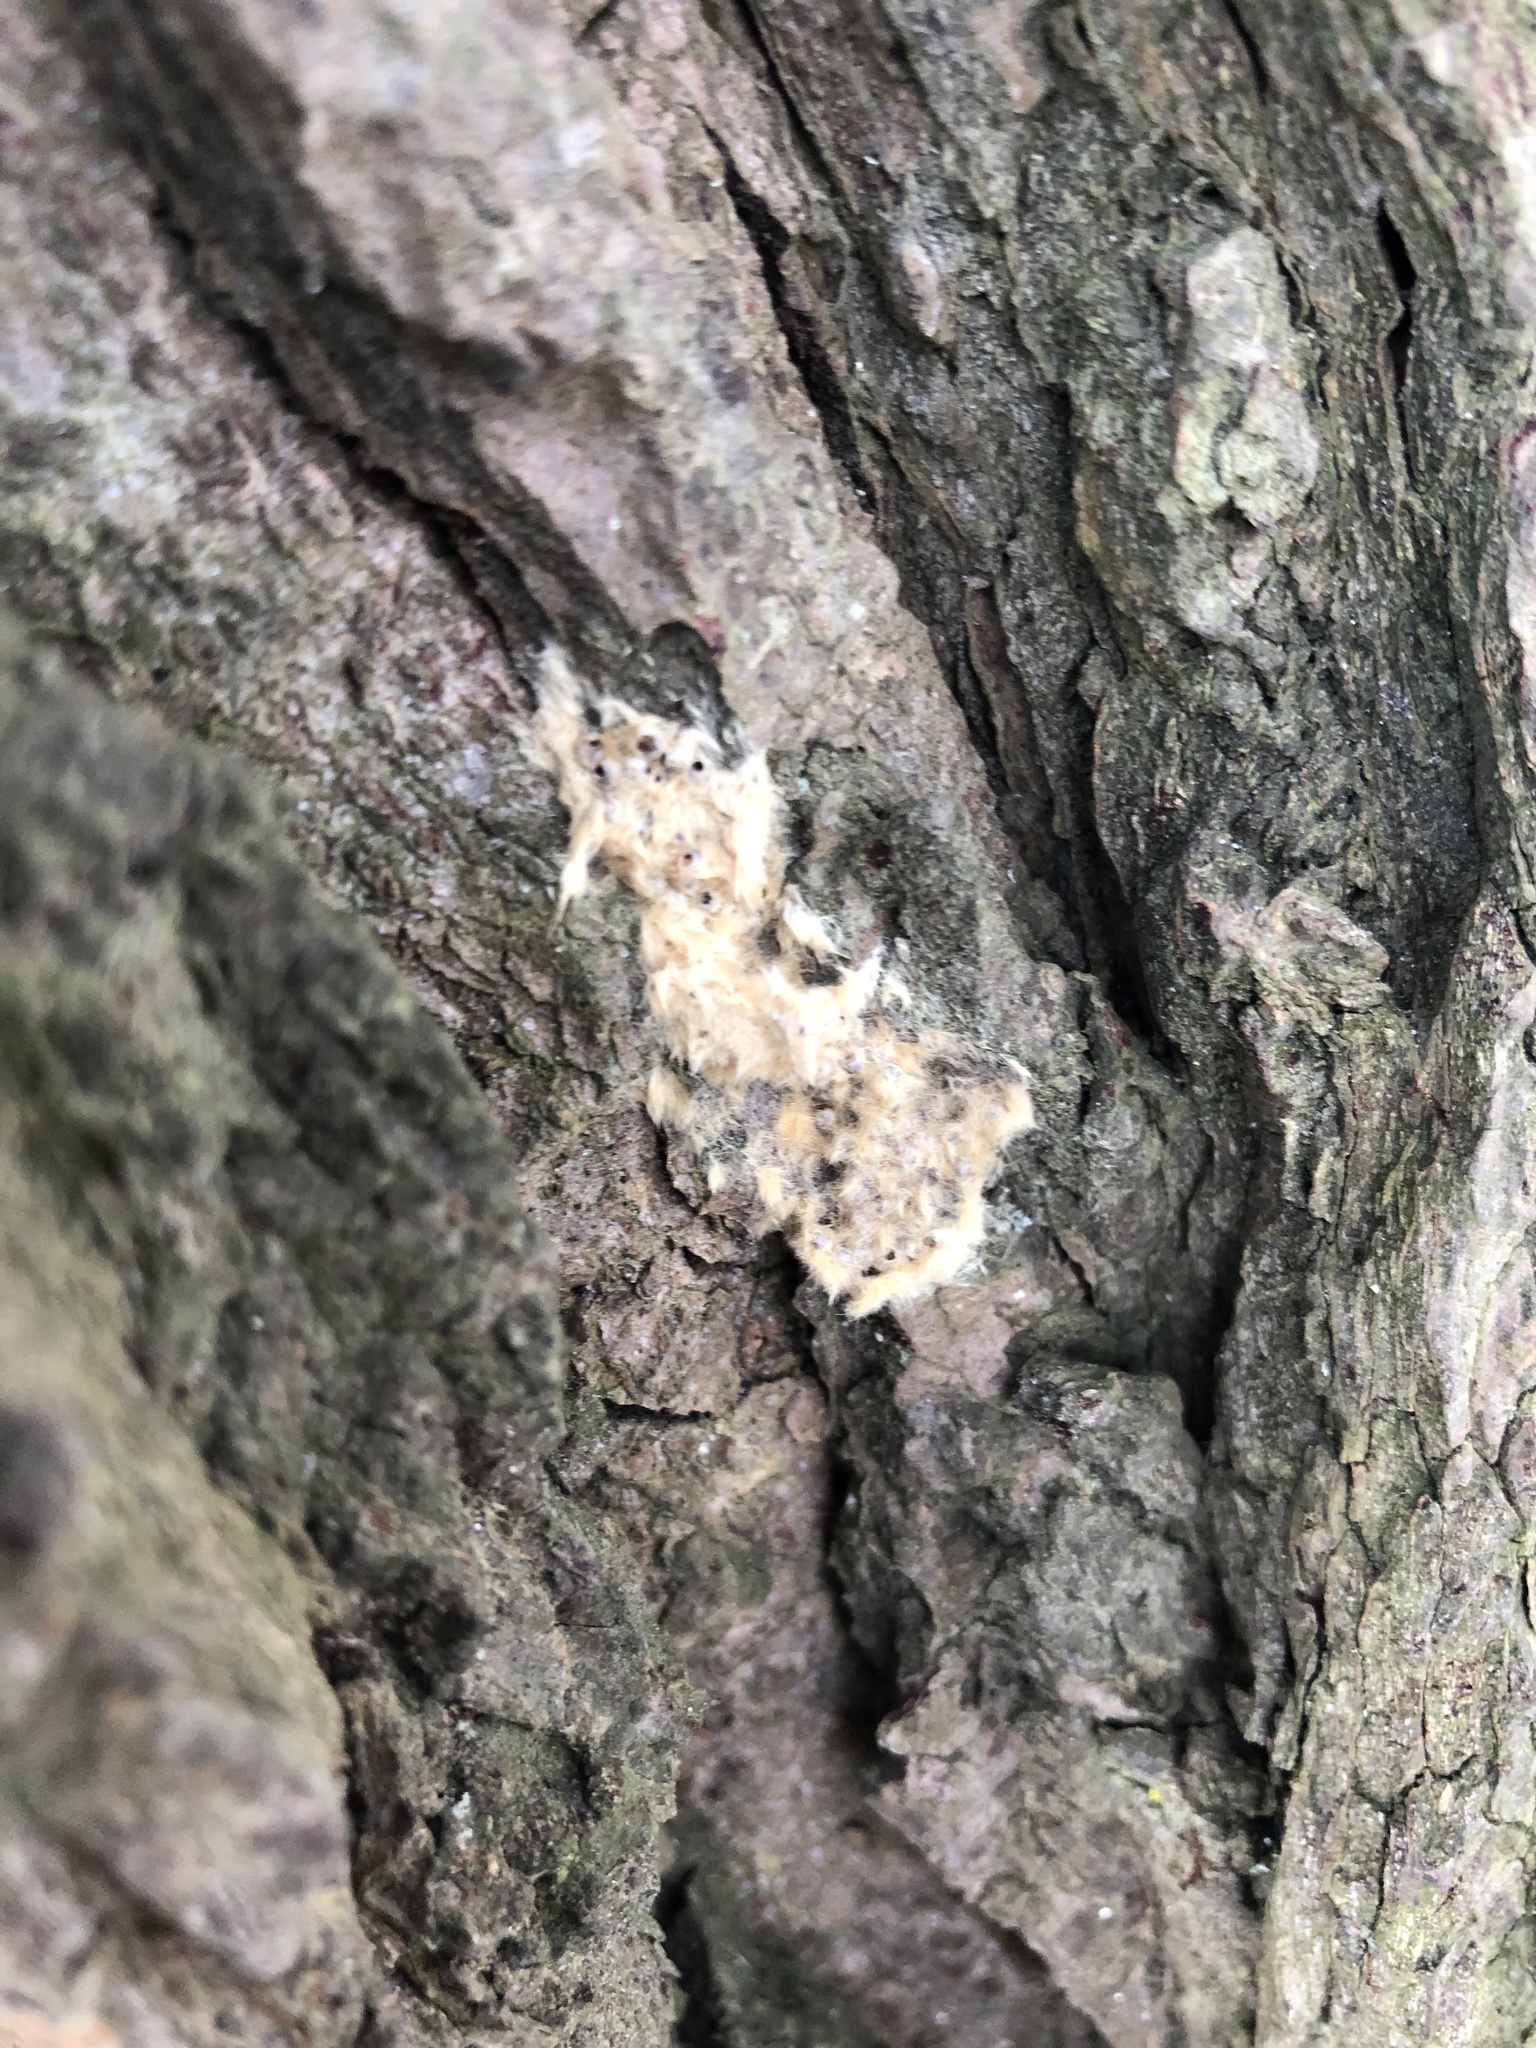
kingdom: Animalia
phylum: Arthropoda
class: Insecta
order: Lepidoptera
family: Erebidae
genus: Lymantria
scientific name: Lymantria dispar
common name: Gypsy moth
